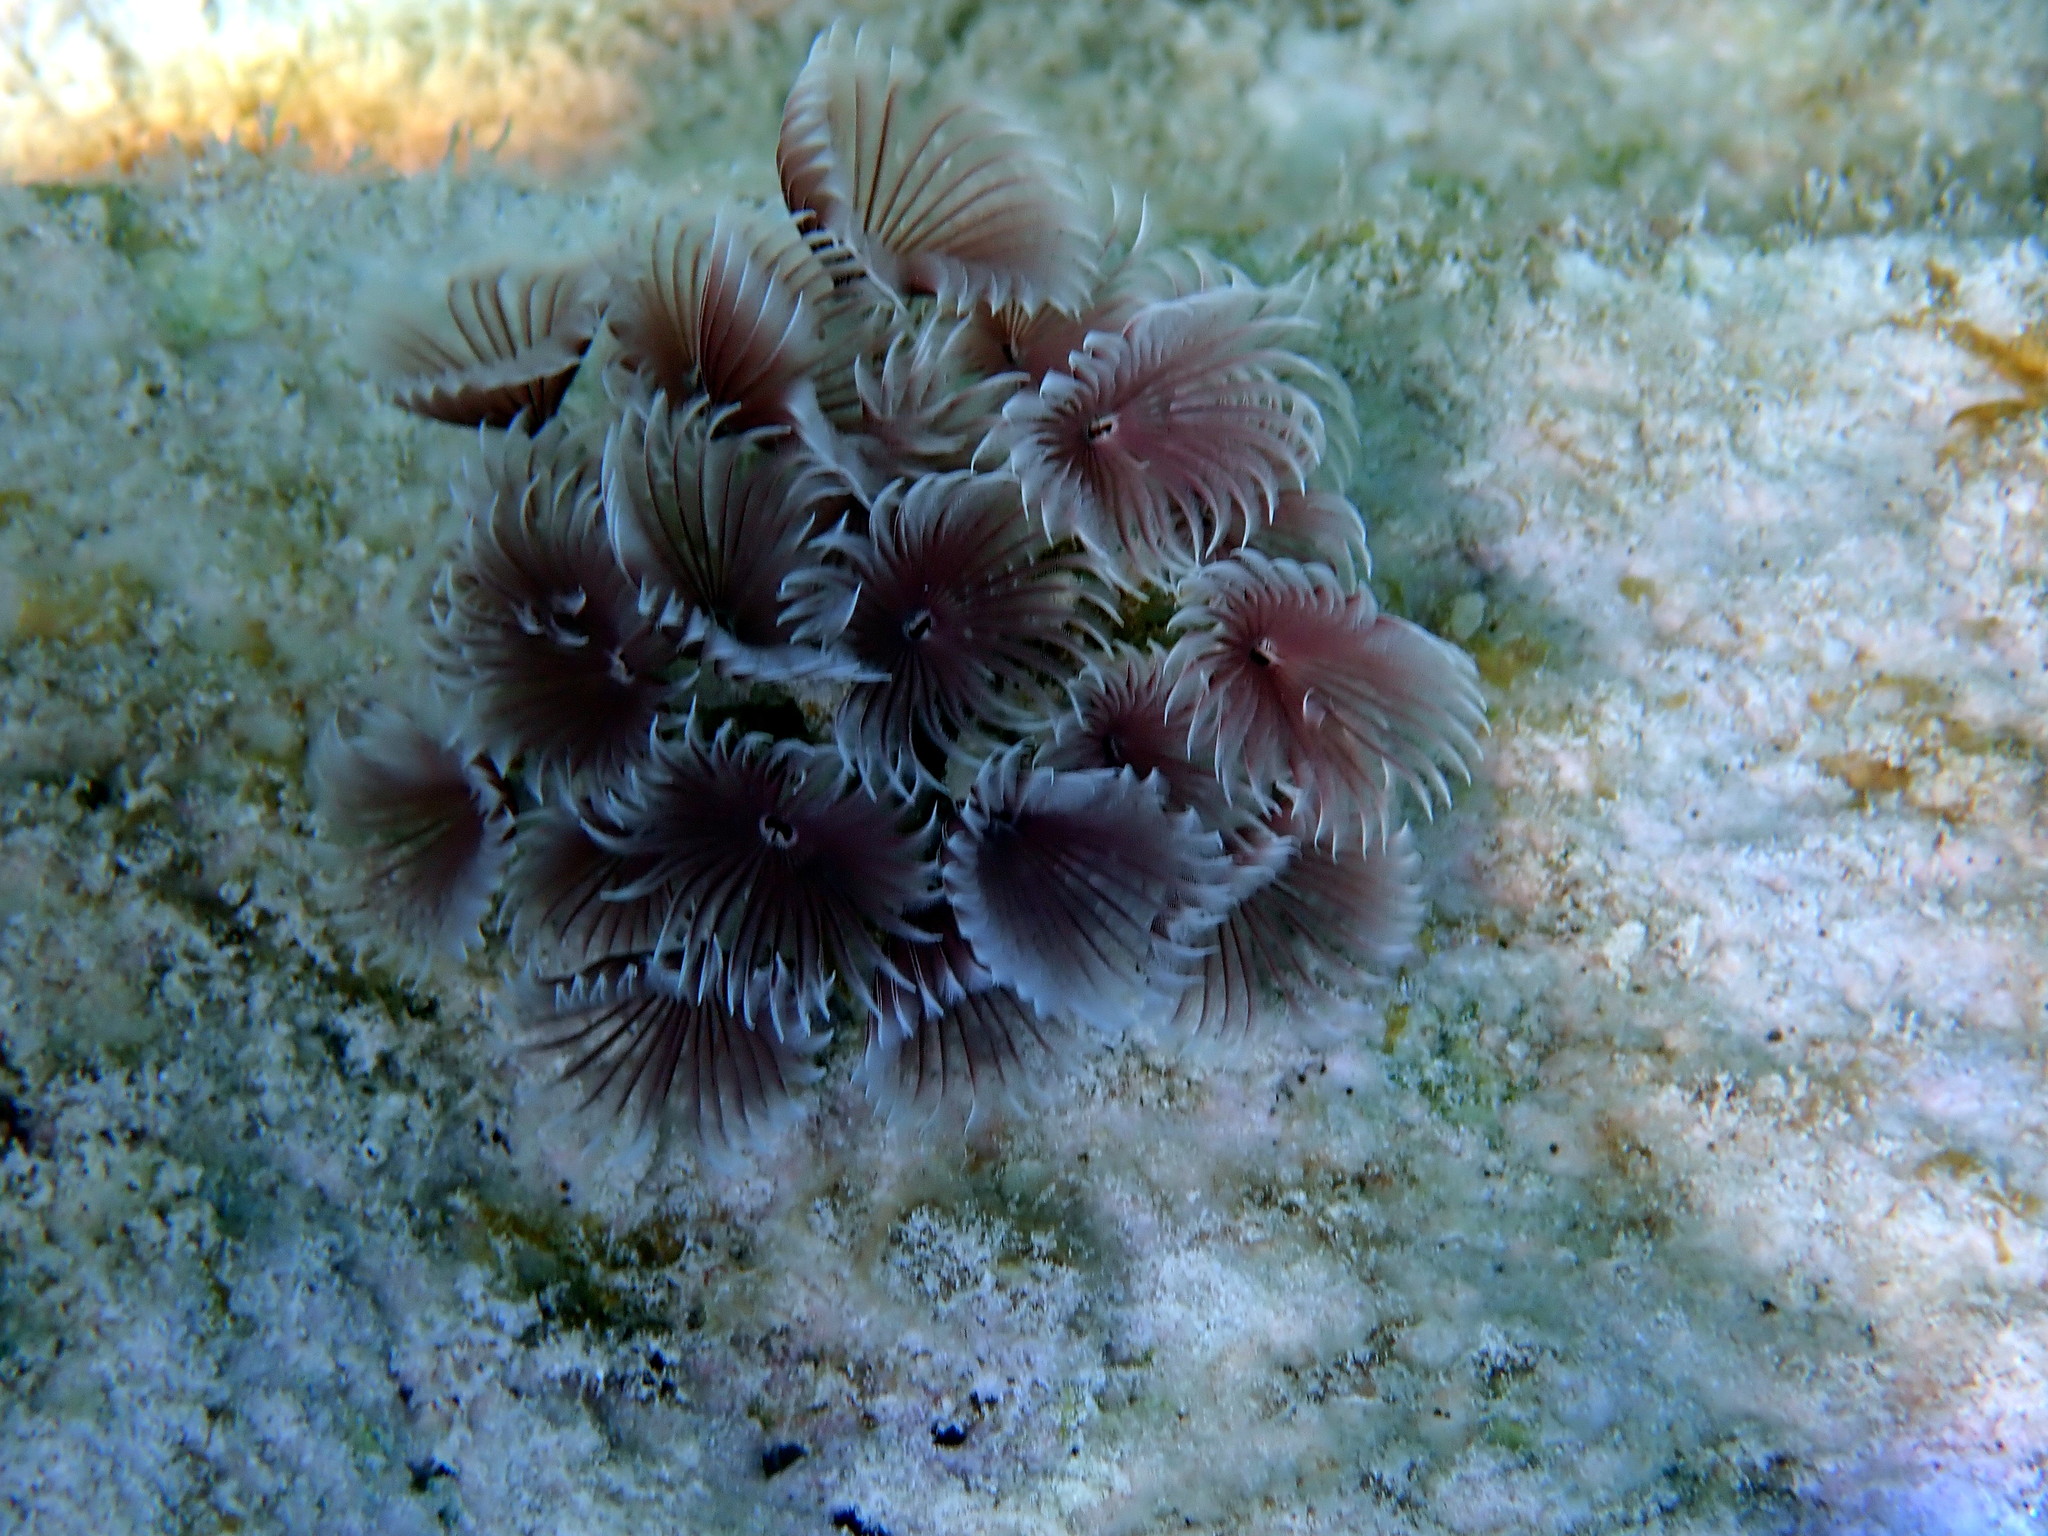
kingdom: Animalia
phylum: Annelida
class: Polychaeta
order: Sabellida
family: Sabellidae
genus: Bispira
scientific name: Bispira brunnea
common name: Social feather duster
